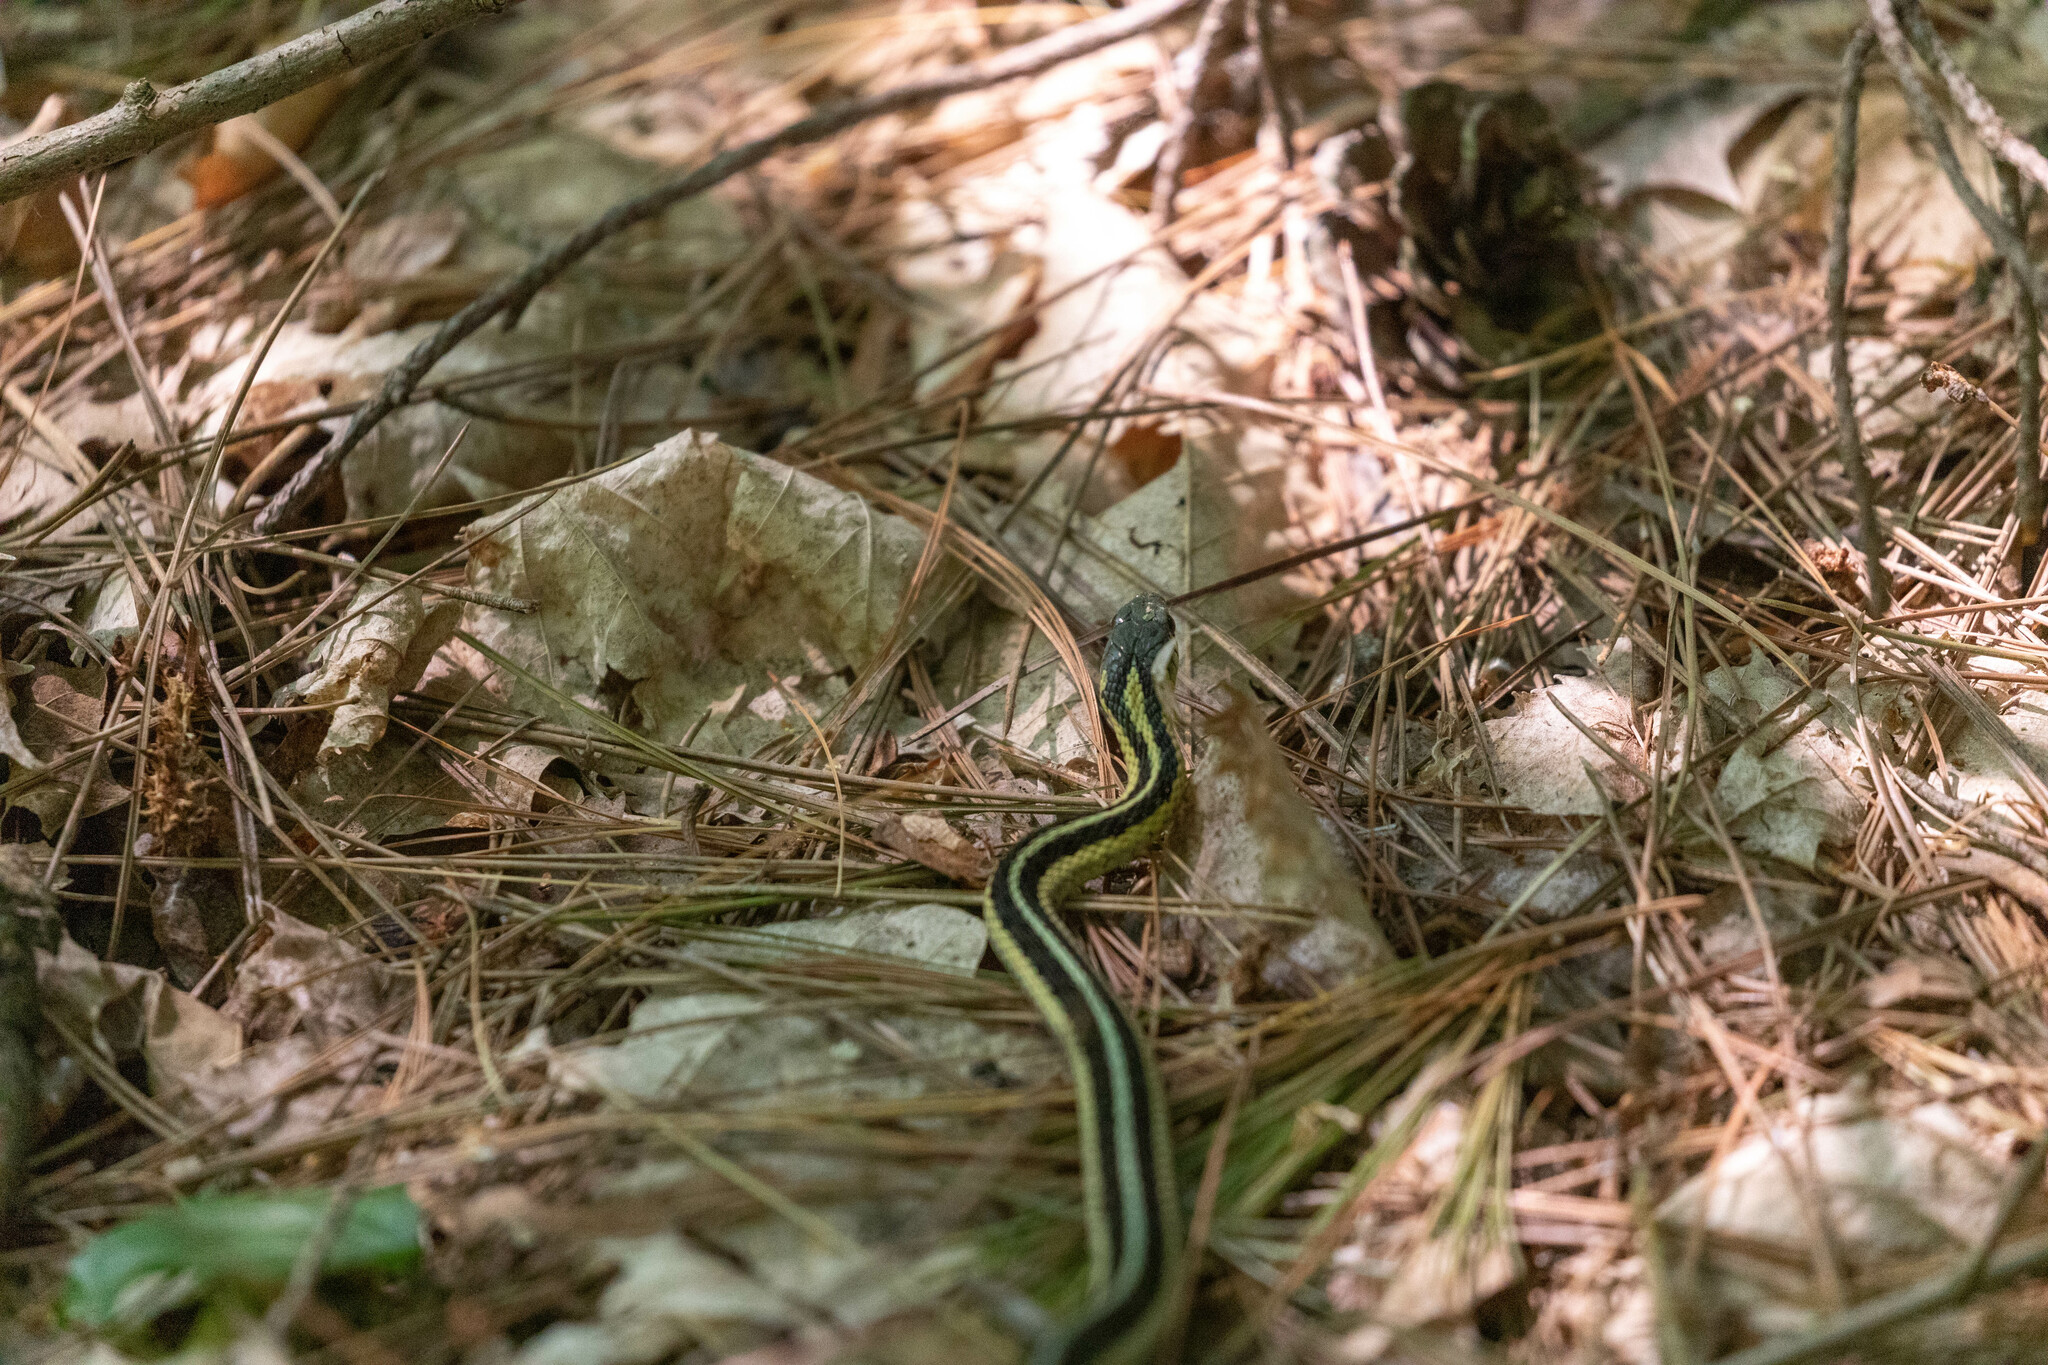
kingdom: Animalia
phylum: Chordata
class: Squamata
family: Colubridae
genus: Thamnophis
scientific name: Thamnophis sirtalis
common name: Common garter snake
